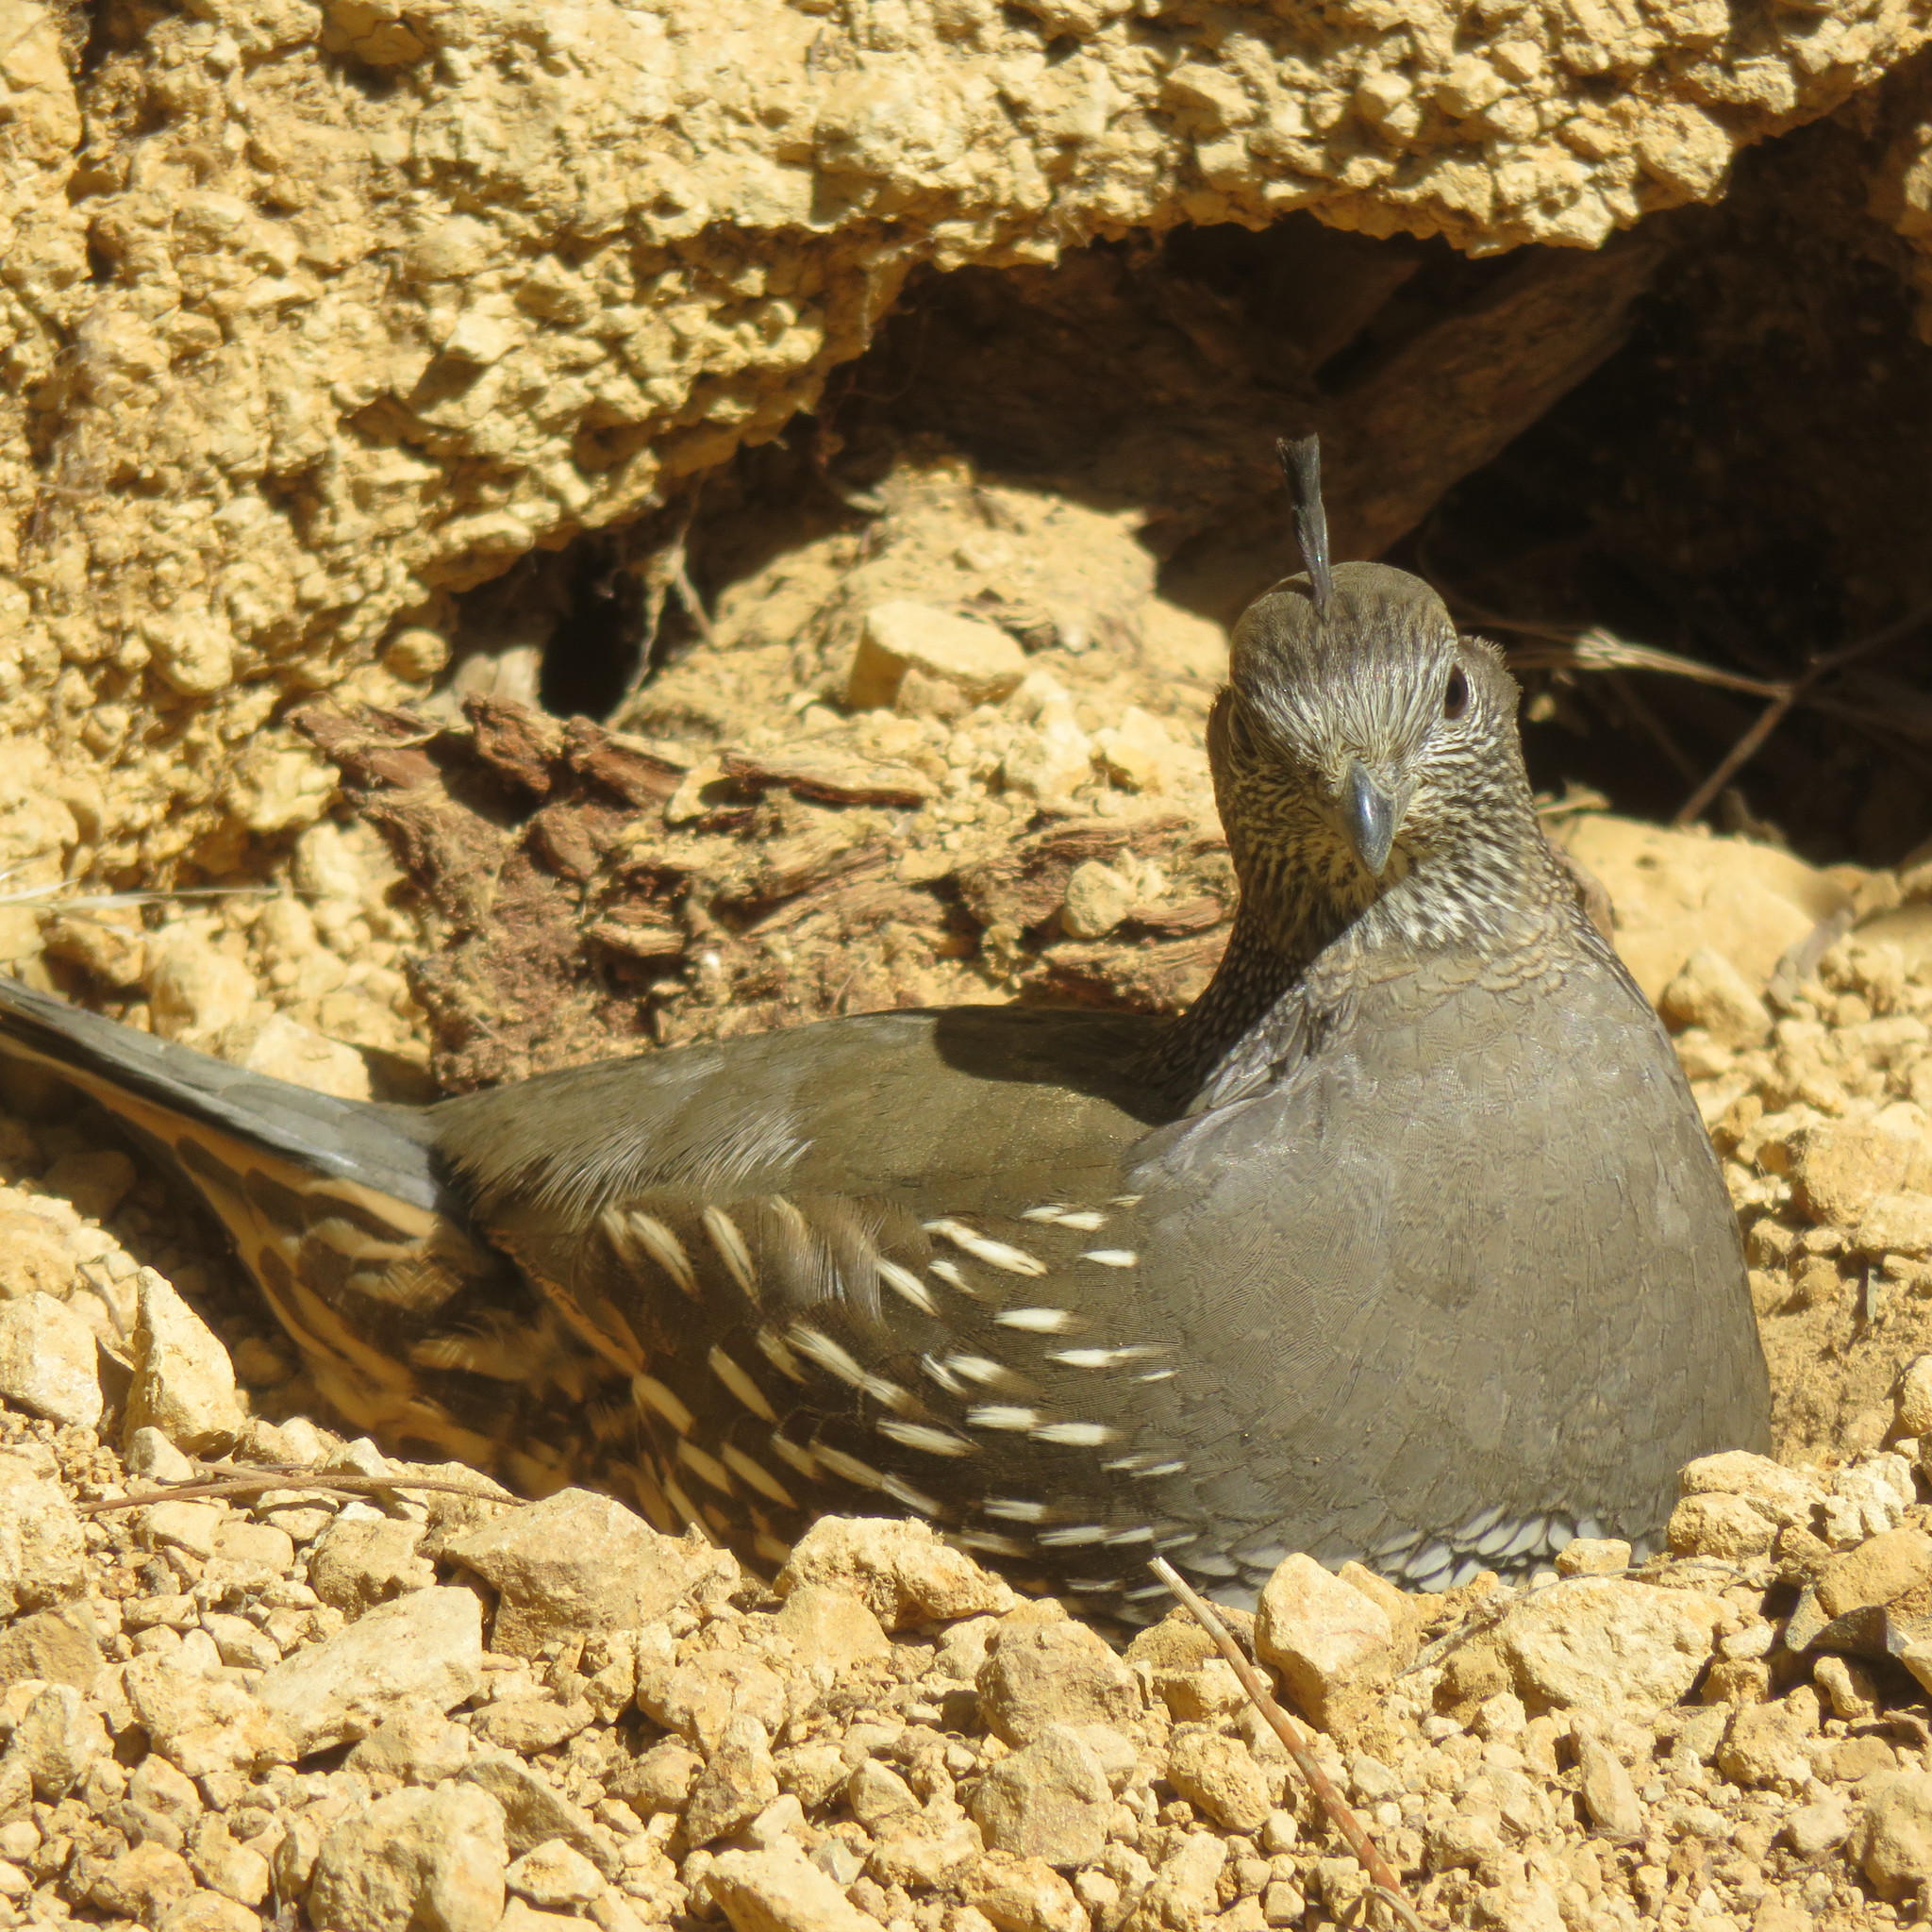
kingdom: Animalia
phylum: Chordata
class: Aves
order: Galliformes
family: Odontophoridae
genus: Callipepla
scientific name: Callipepla californica
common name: California quail
